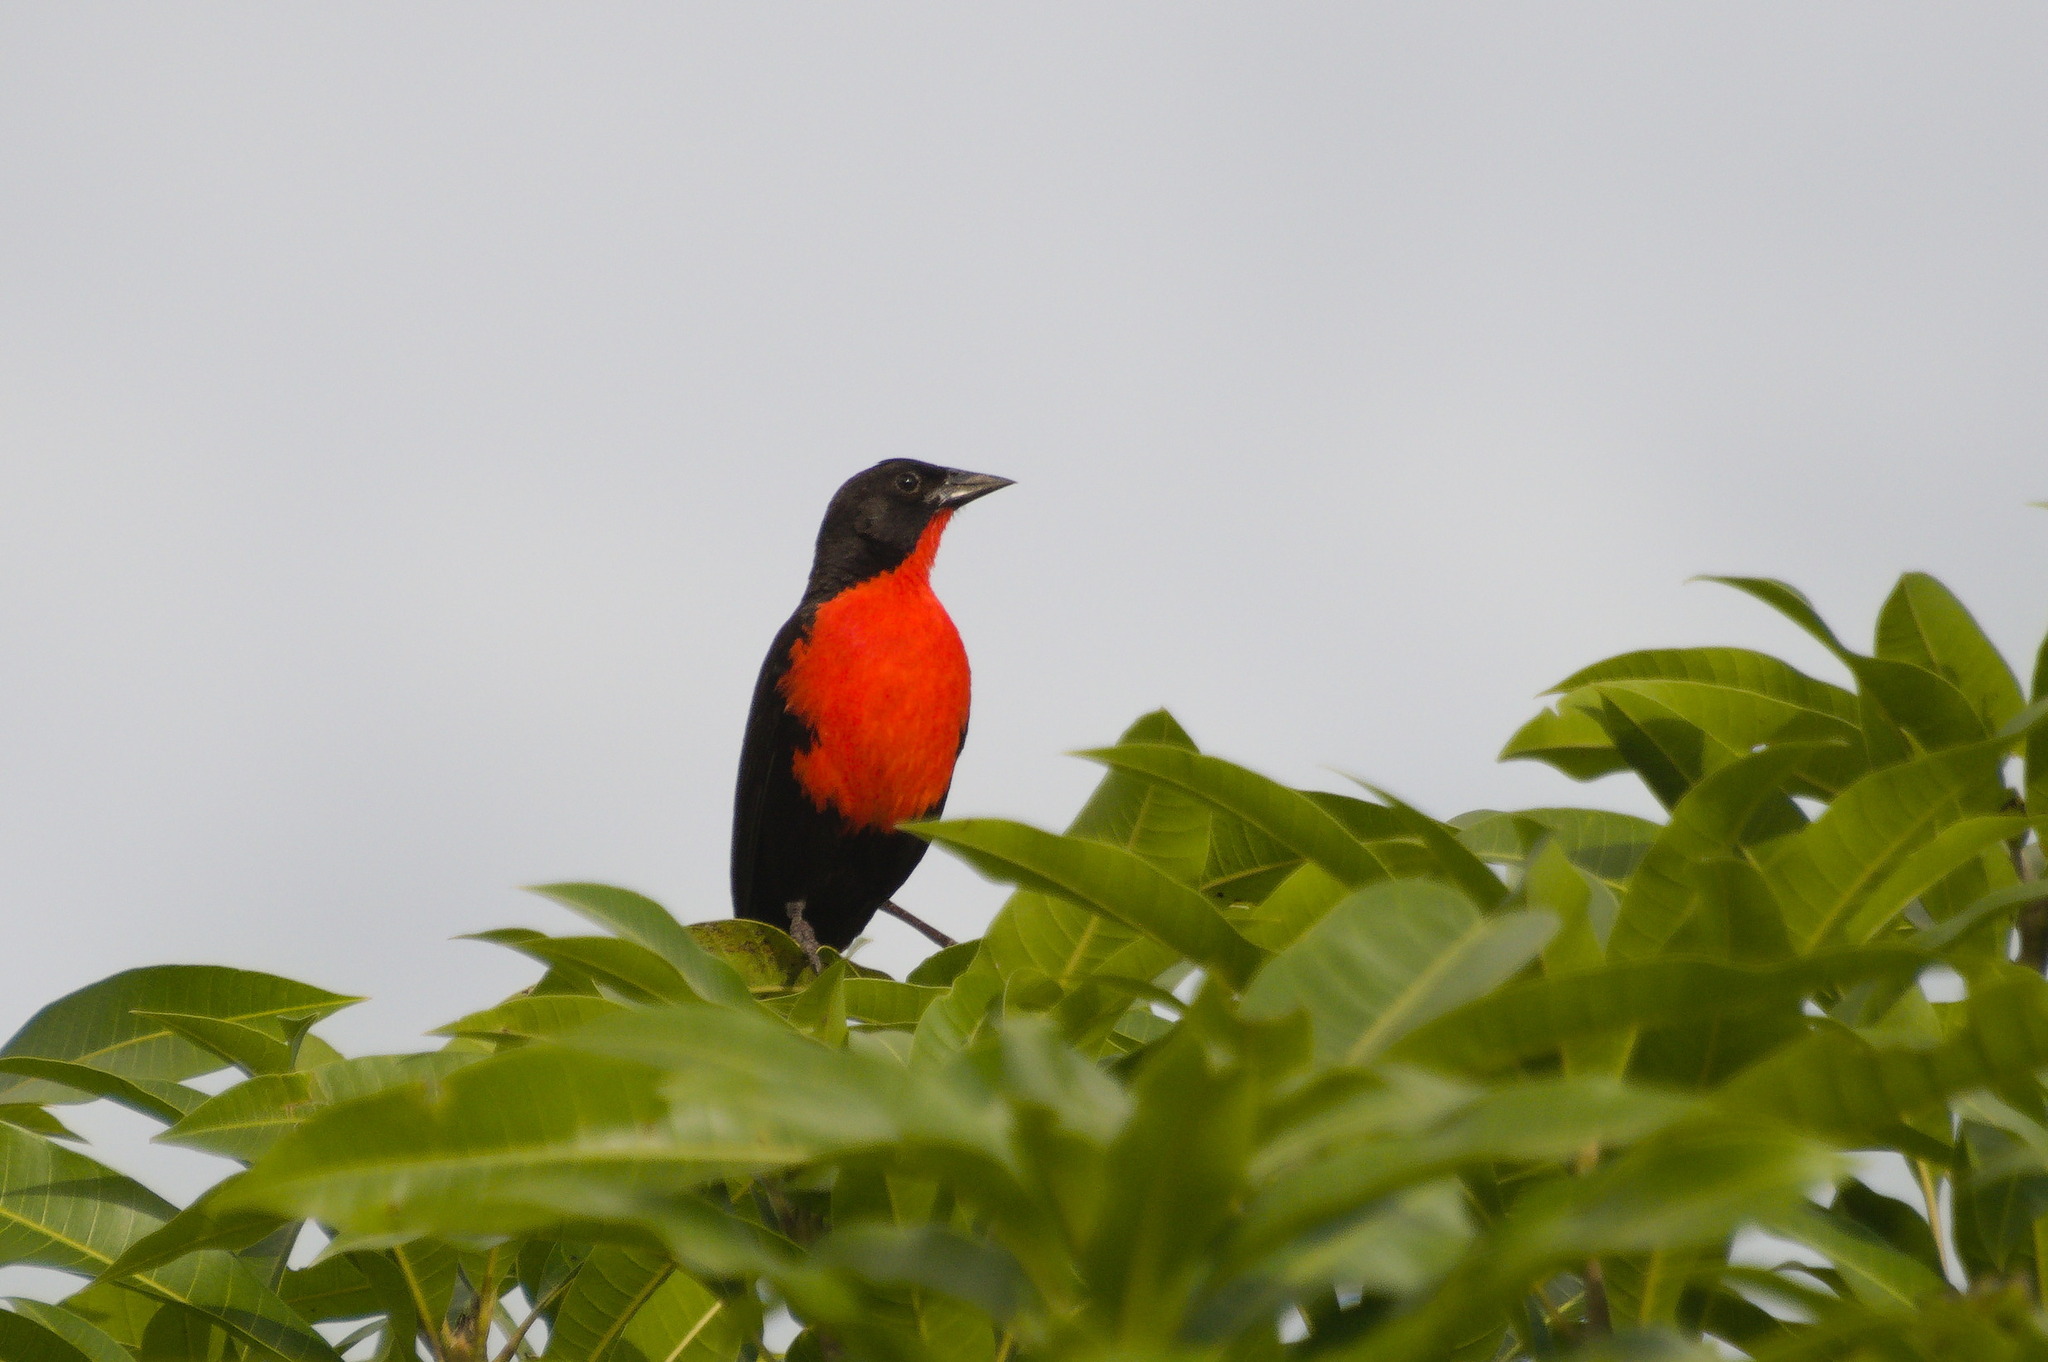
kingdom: Animalia
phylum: Chordata
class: Aves
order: Passeriformes
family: Icteridae
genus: Sturnella
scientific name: Sturnella militaris
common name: Red-breasted blackbird
